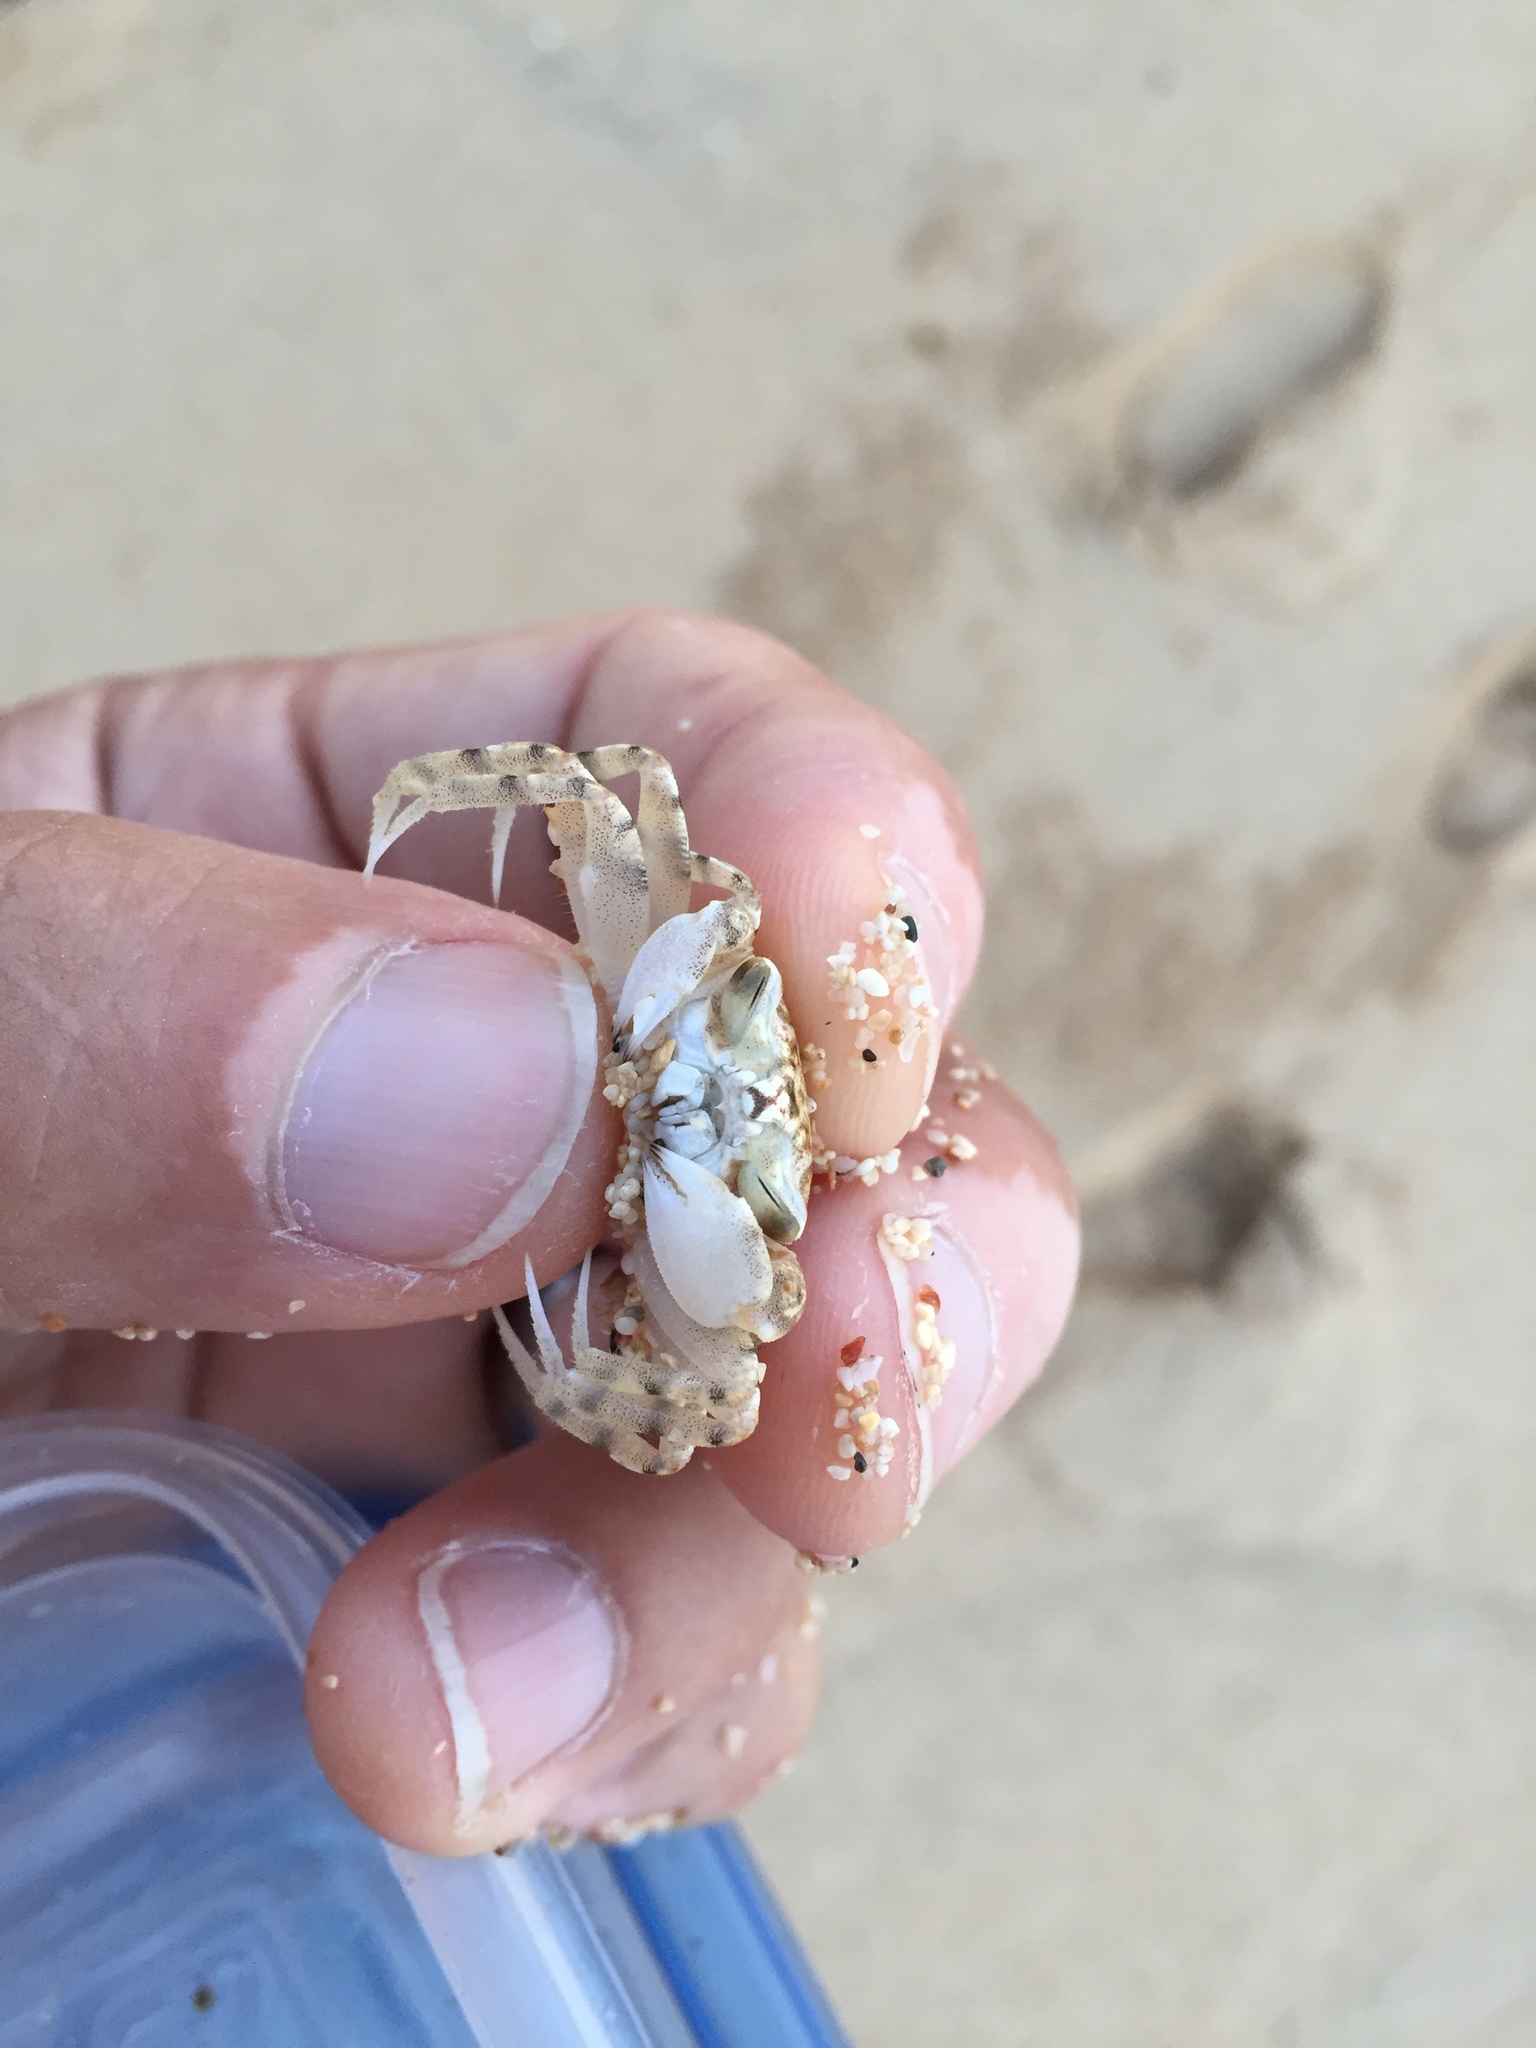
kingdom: Animalia
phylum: Arthropoda
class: Malacostraca
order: Decapoda
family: Ocypodidae
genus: Ocypode
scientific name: Ocypode pallidula
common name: Pallid ghost crab
